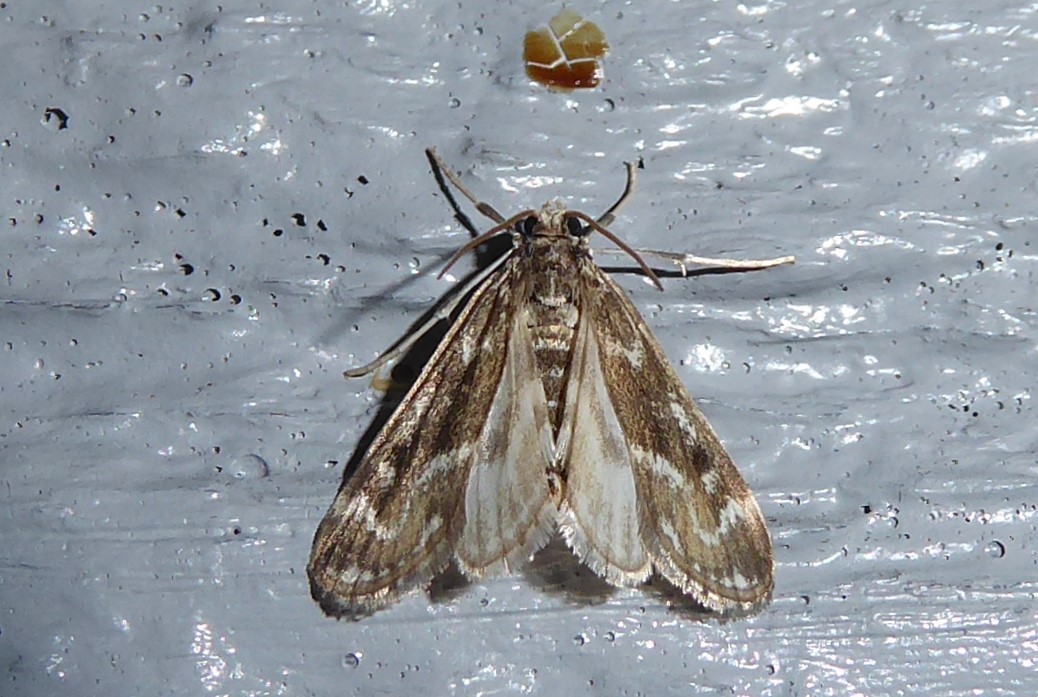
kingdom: Animalia
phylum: Arthropoda
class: Insecta
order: Lepidoptera
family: Crambidae
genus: Hygraula
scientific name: Hygraula nitens
